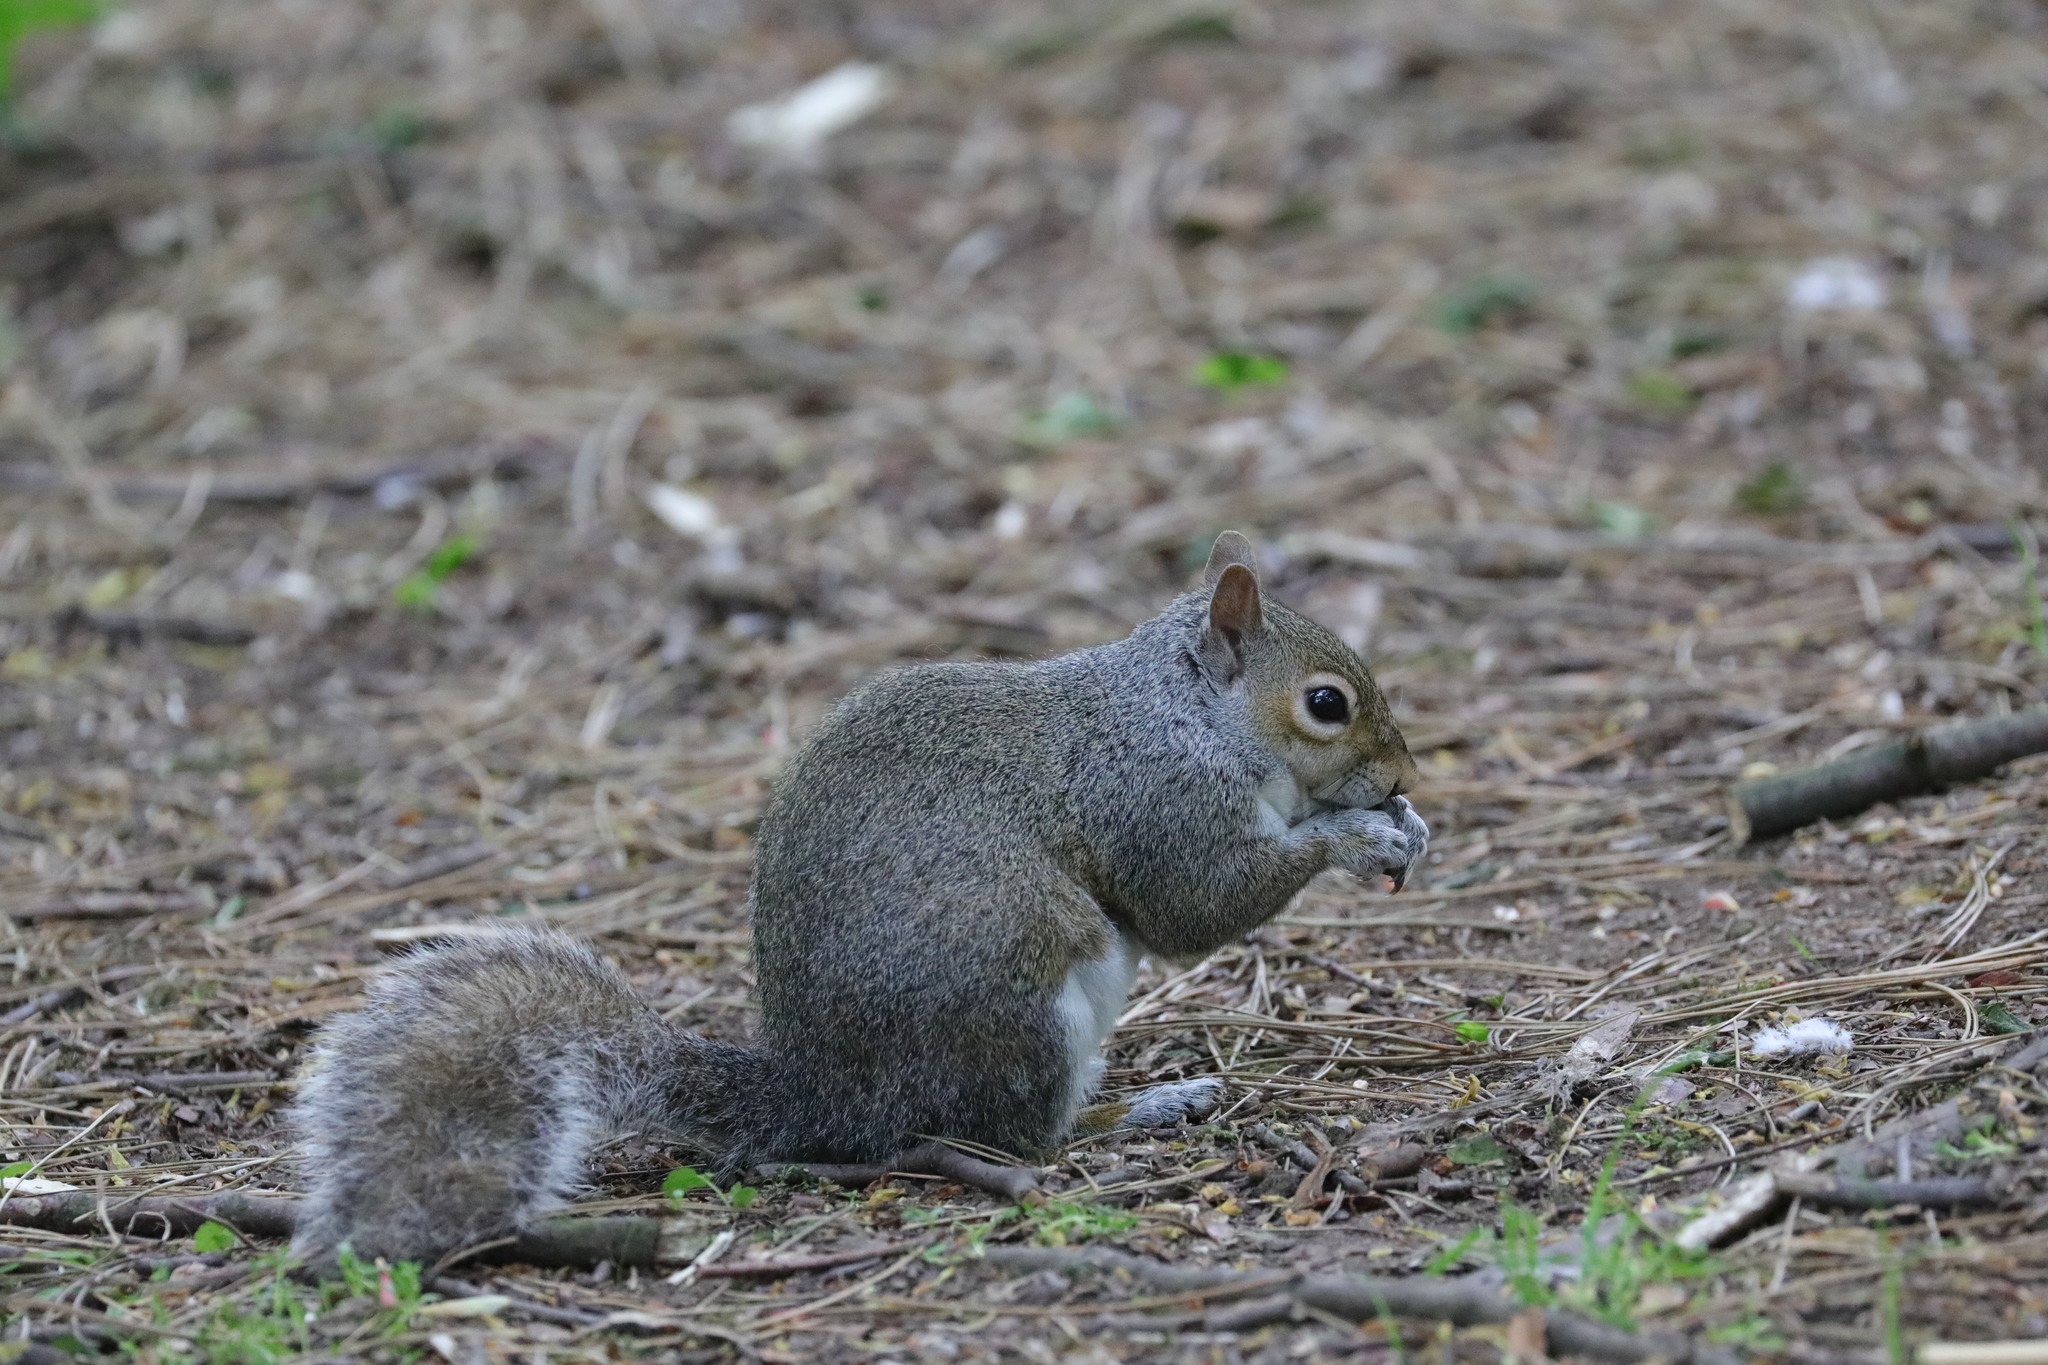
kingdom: Animalia
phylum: Chordata
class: Mammalia
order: Rodentia
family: Sciuridae
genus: Sciurus
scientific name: Sciurus carolinensis
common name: Eastern gray squirrel
